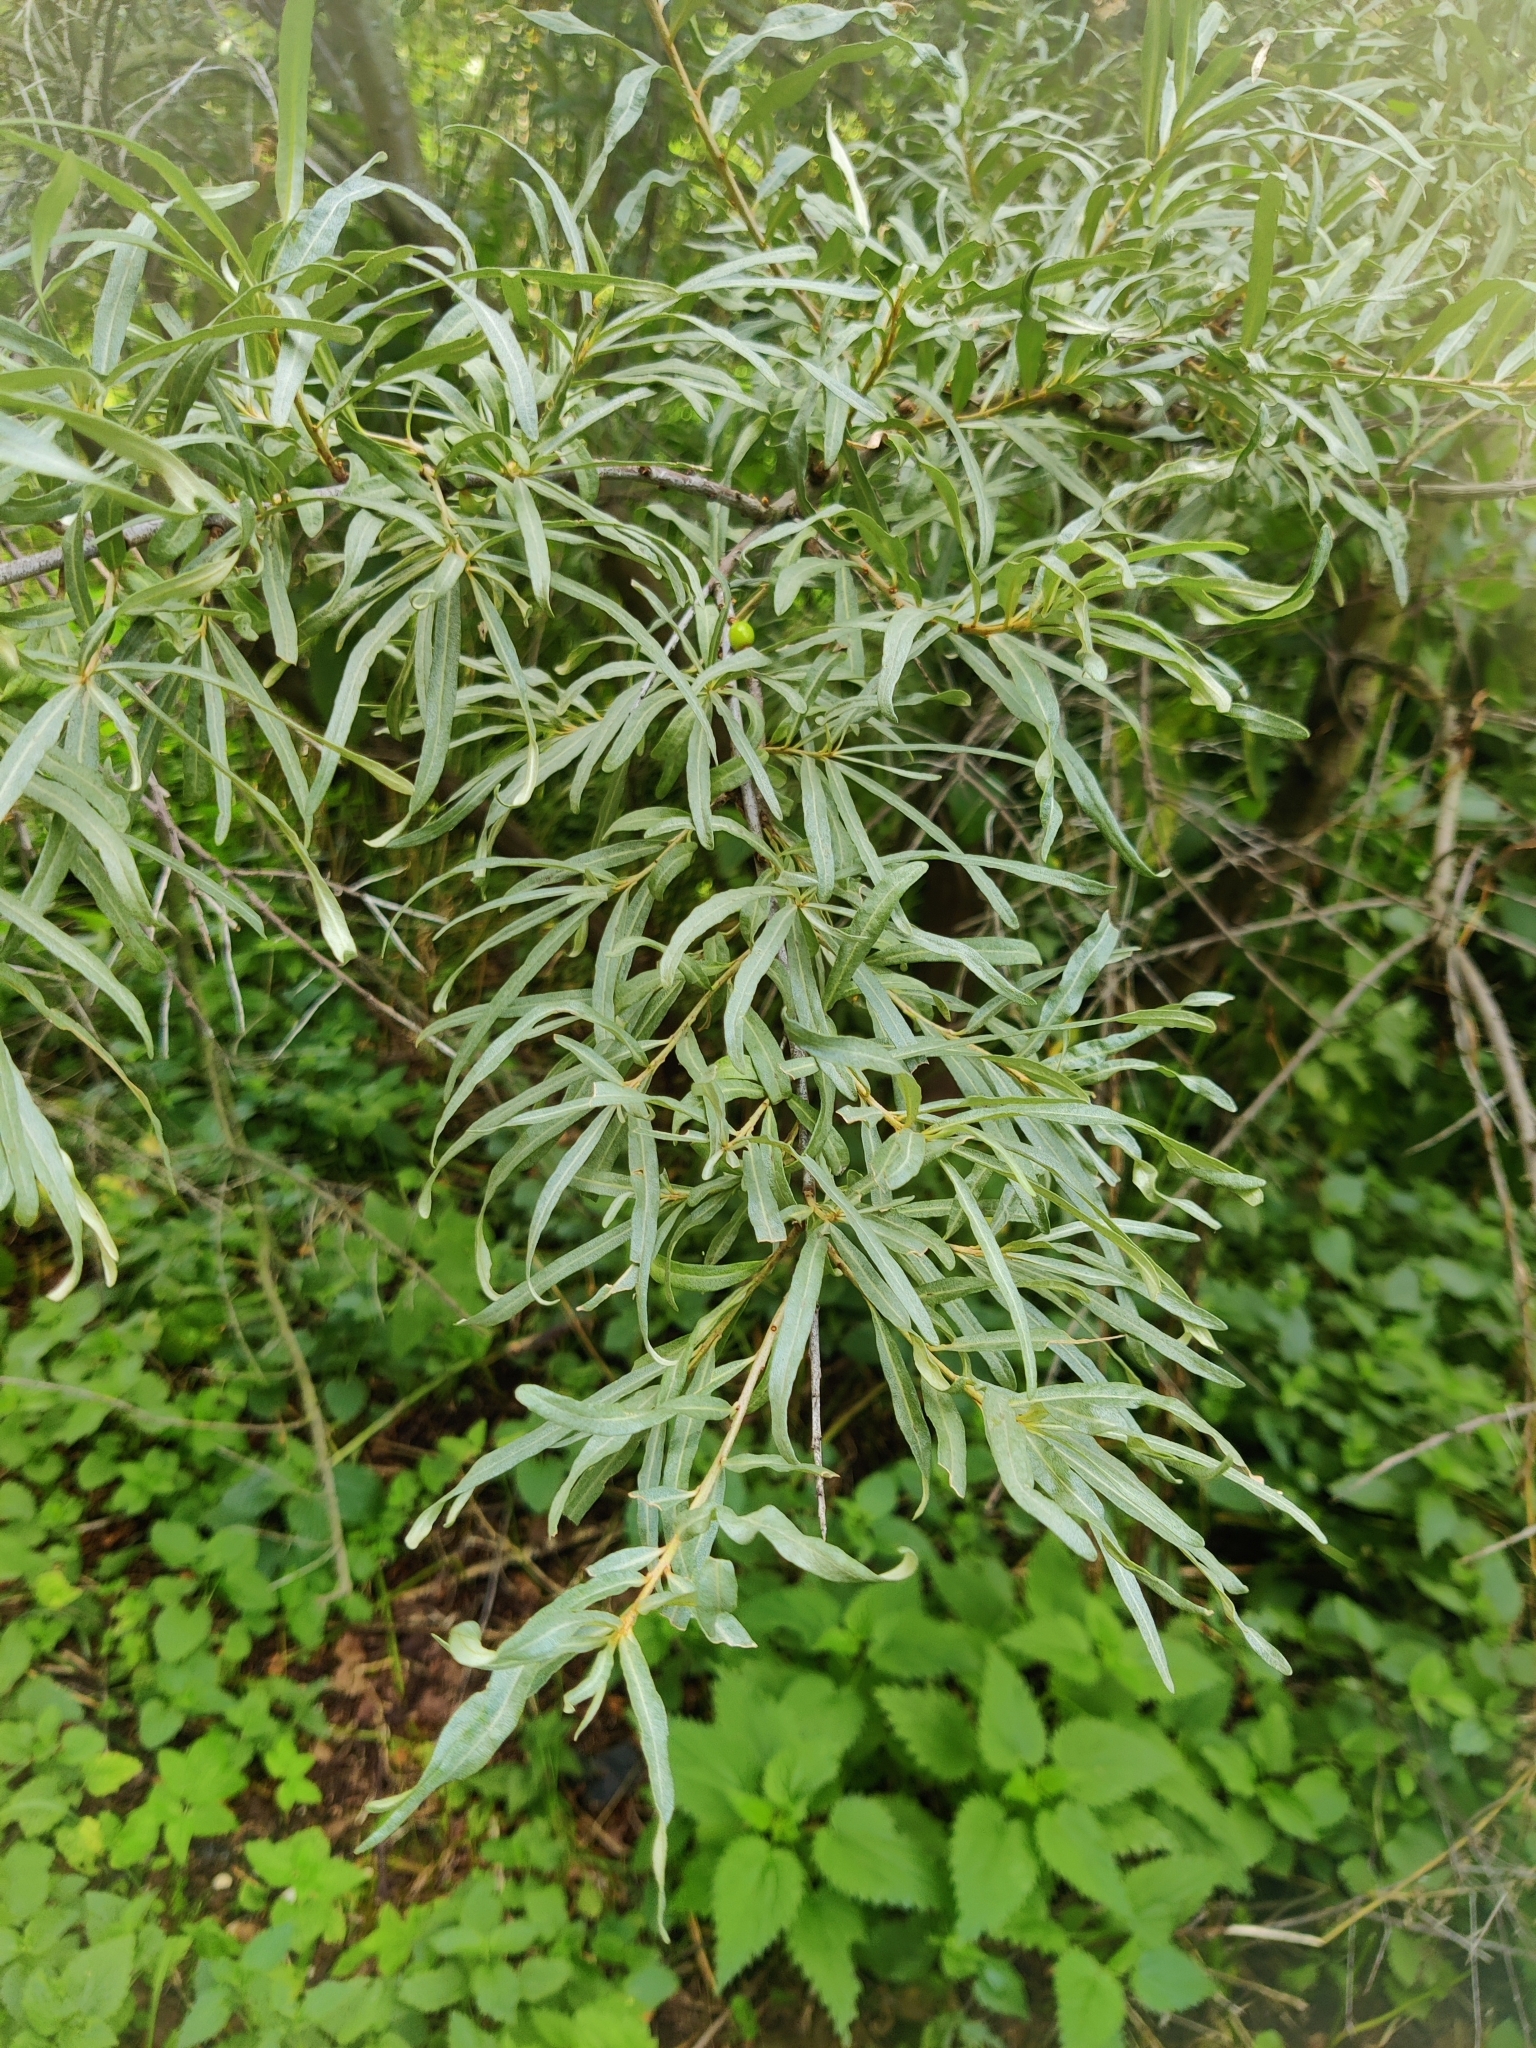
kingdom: Plantae
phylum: Tracheophyta
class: Magnoliopsida
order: Rosales
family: Elaeagnaceae
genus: Hippophae
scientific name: Hippophae rhamnoides
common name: Sea-buckthorn
